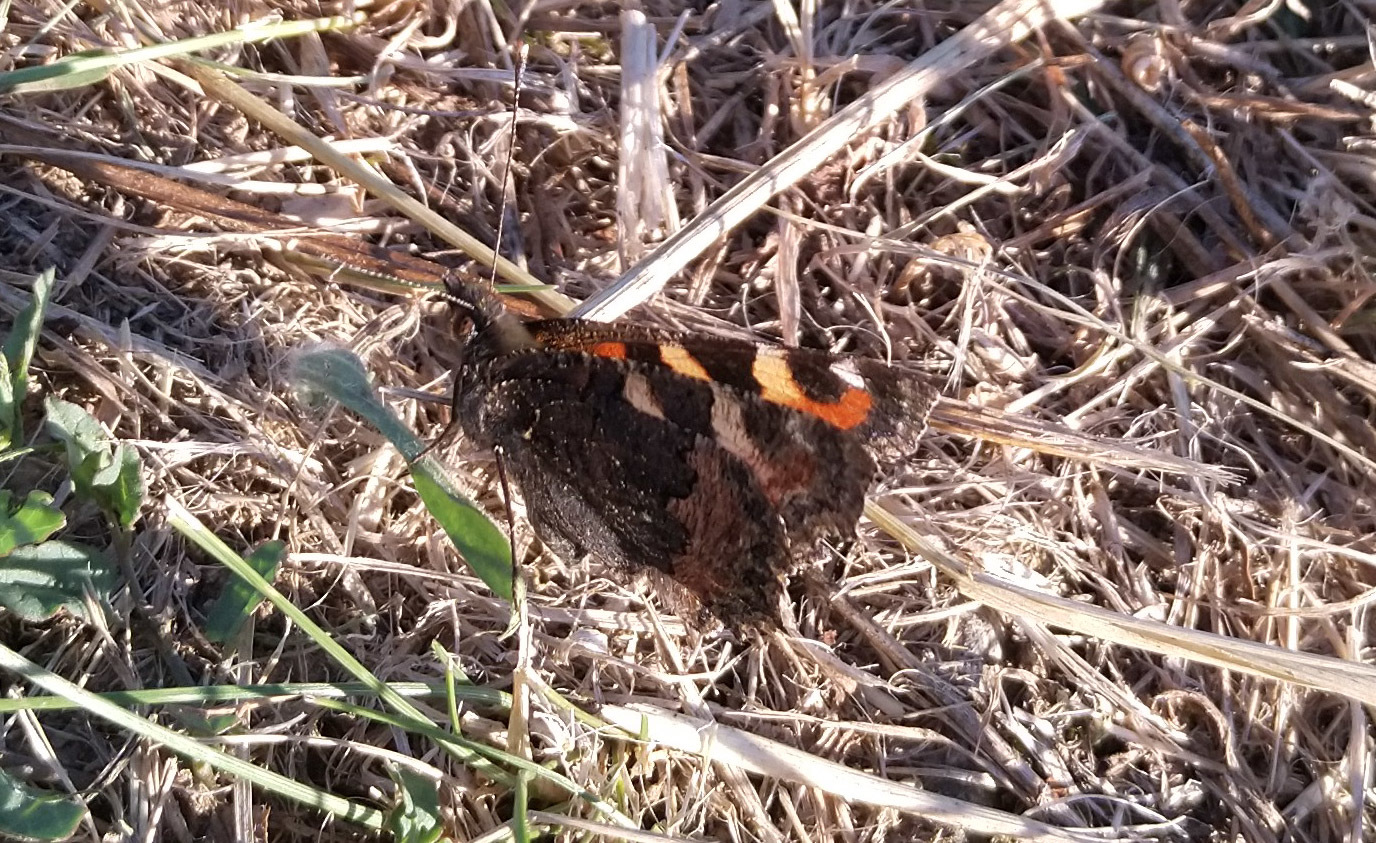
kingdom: Animalia
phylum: Arthropoda
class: Insecta
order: Lepidoptera
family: Nymphalidae
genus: Aglais
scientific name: Aglais urticae
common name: Small tortoiseshell
